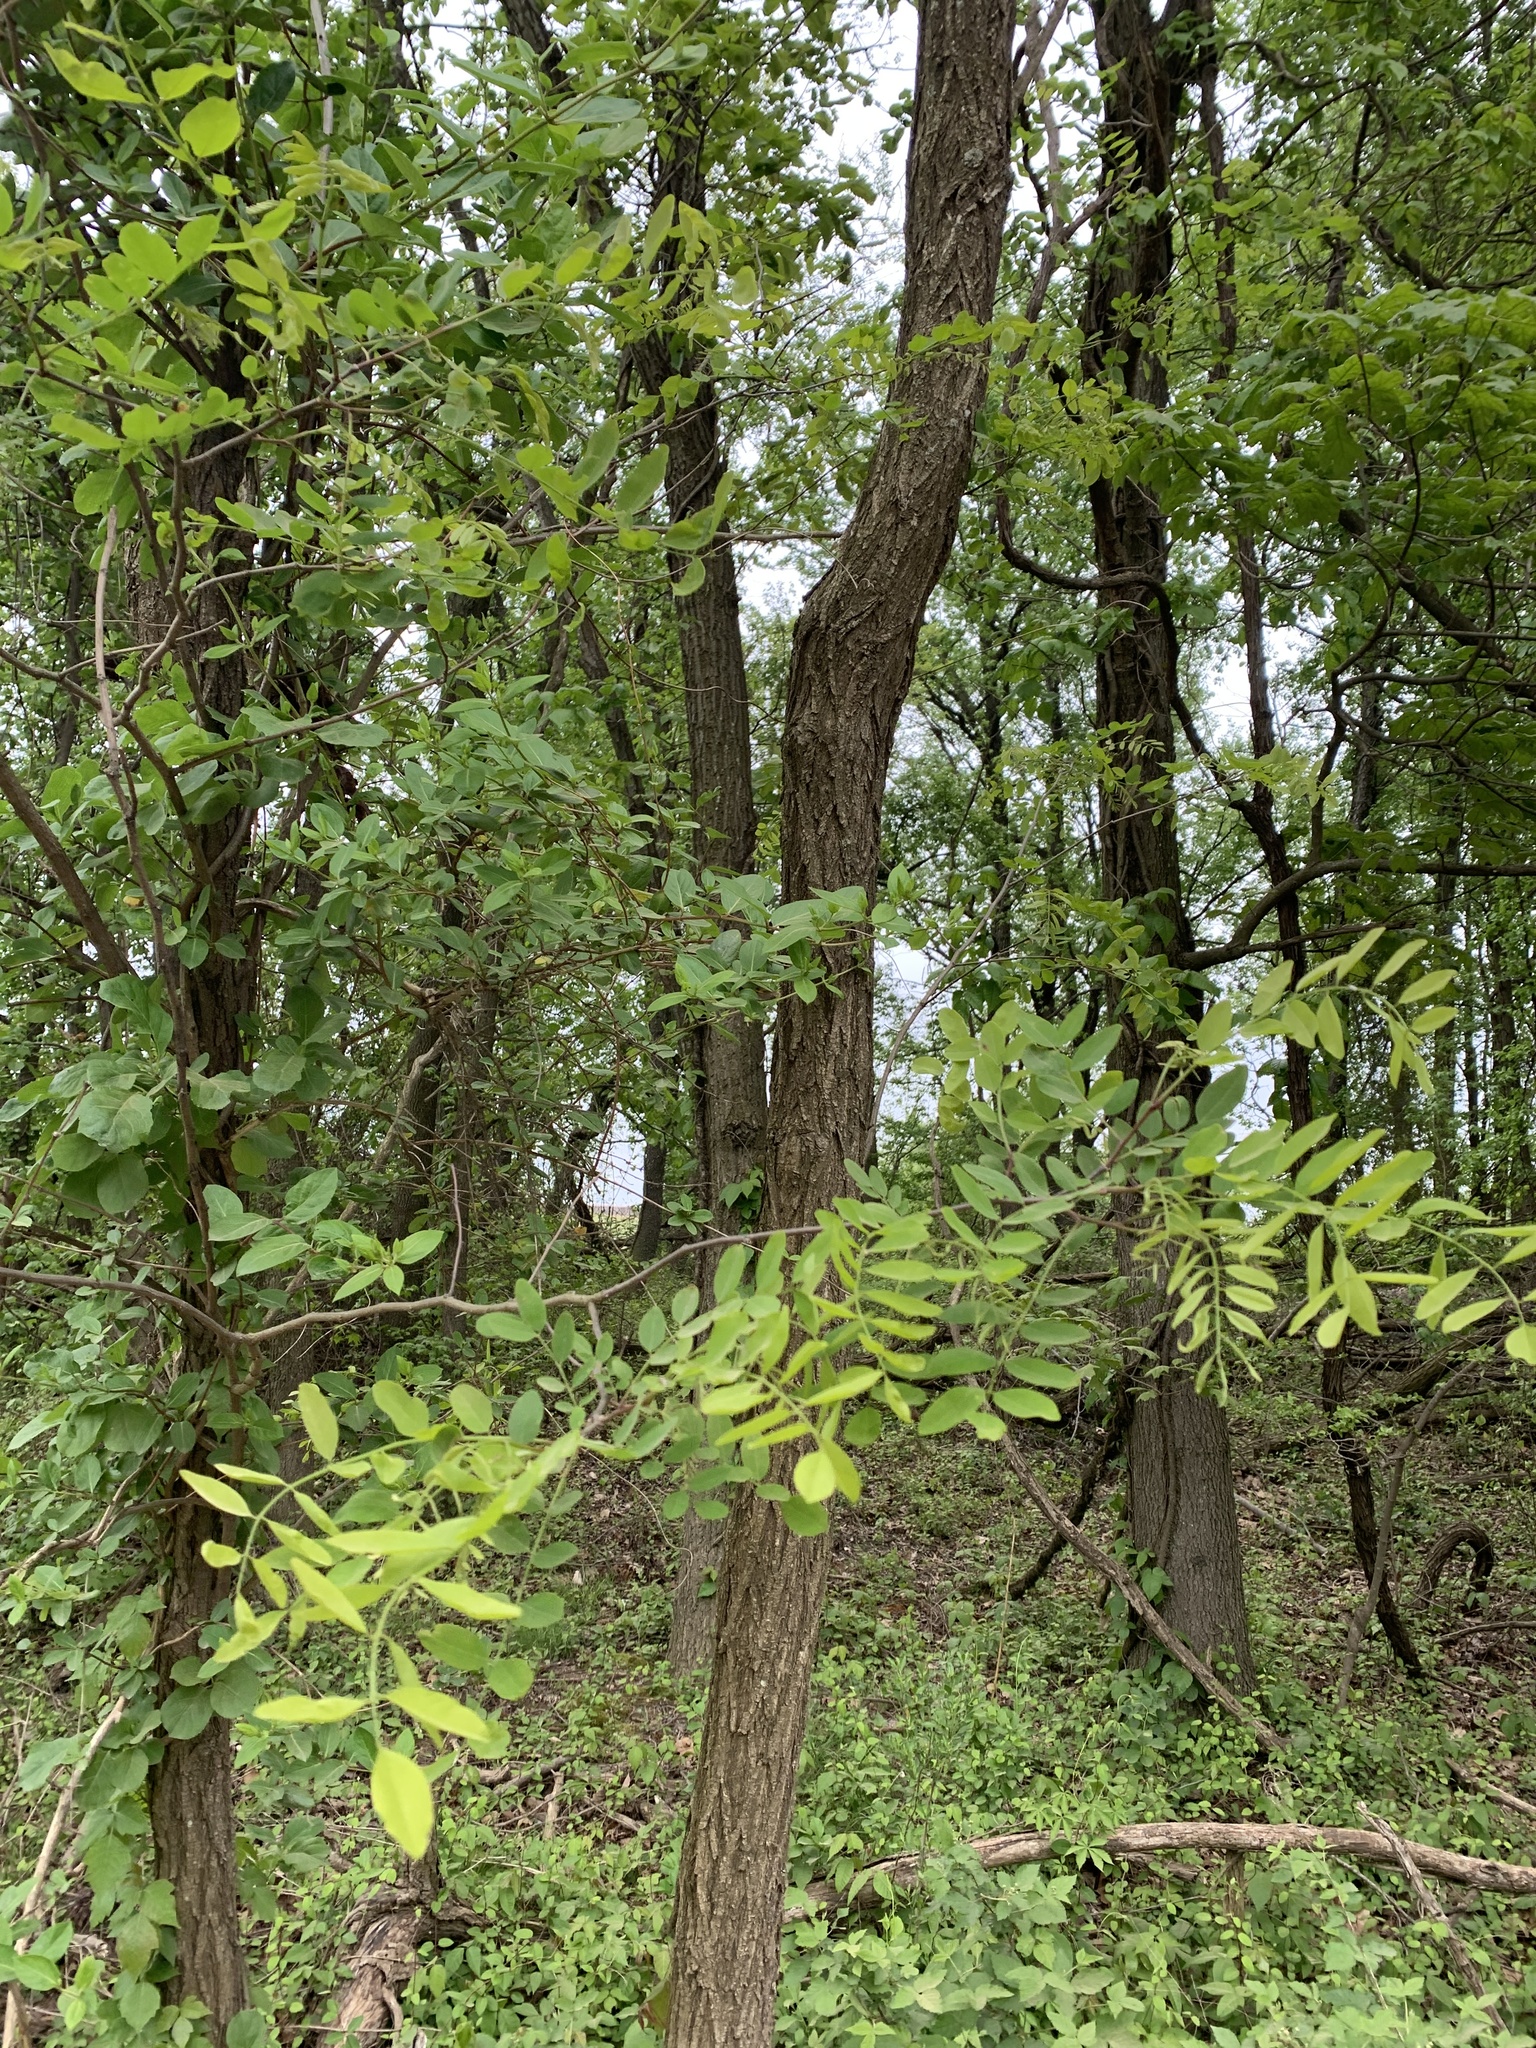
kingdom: Plantae
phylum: Tracheophyta
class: Magnoliopsida
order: Fabales
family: Fabaceae
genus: Robinia
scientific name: Robinia pseudoacacia
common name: Black locust
